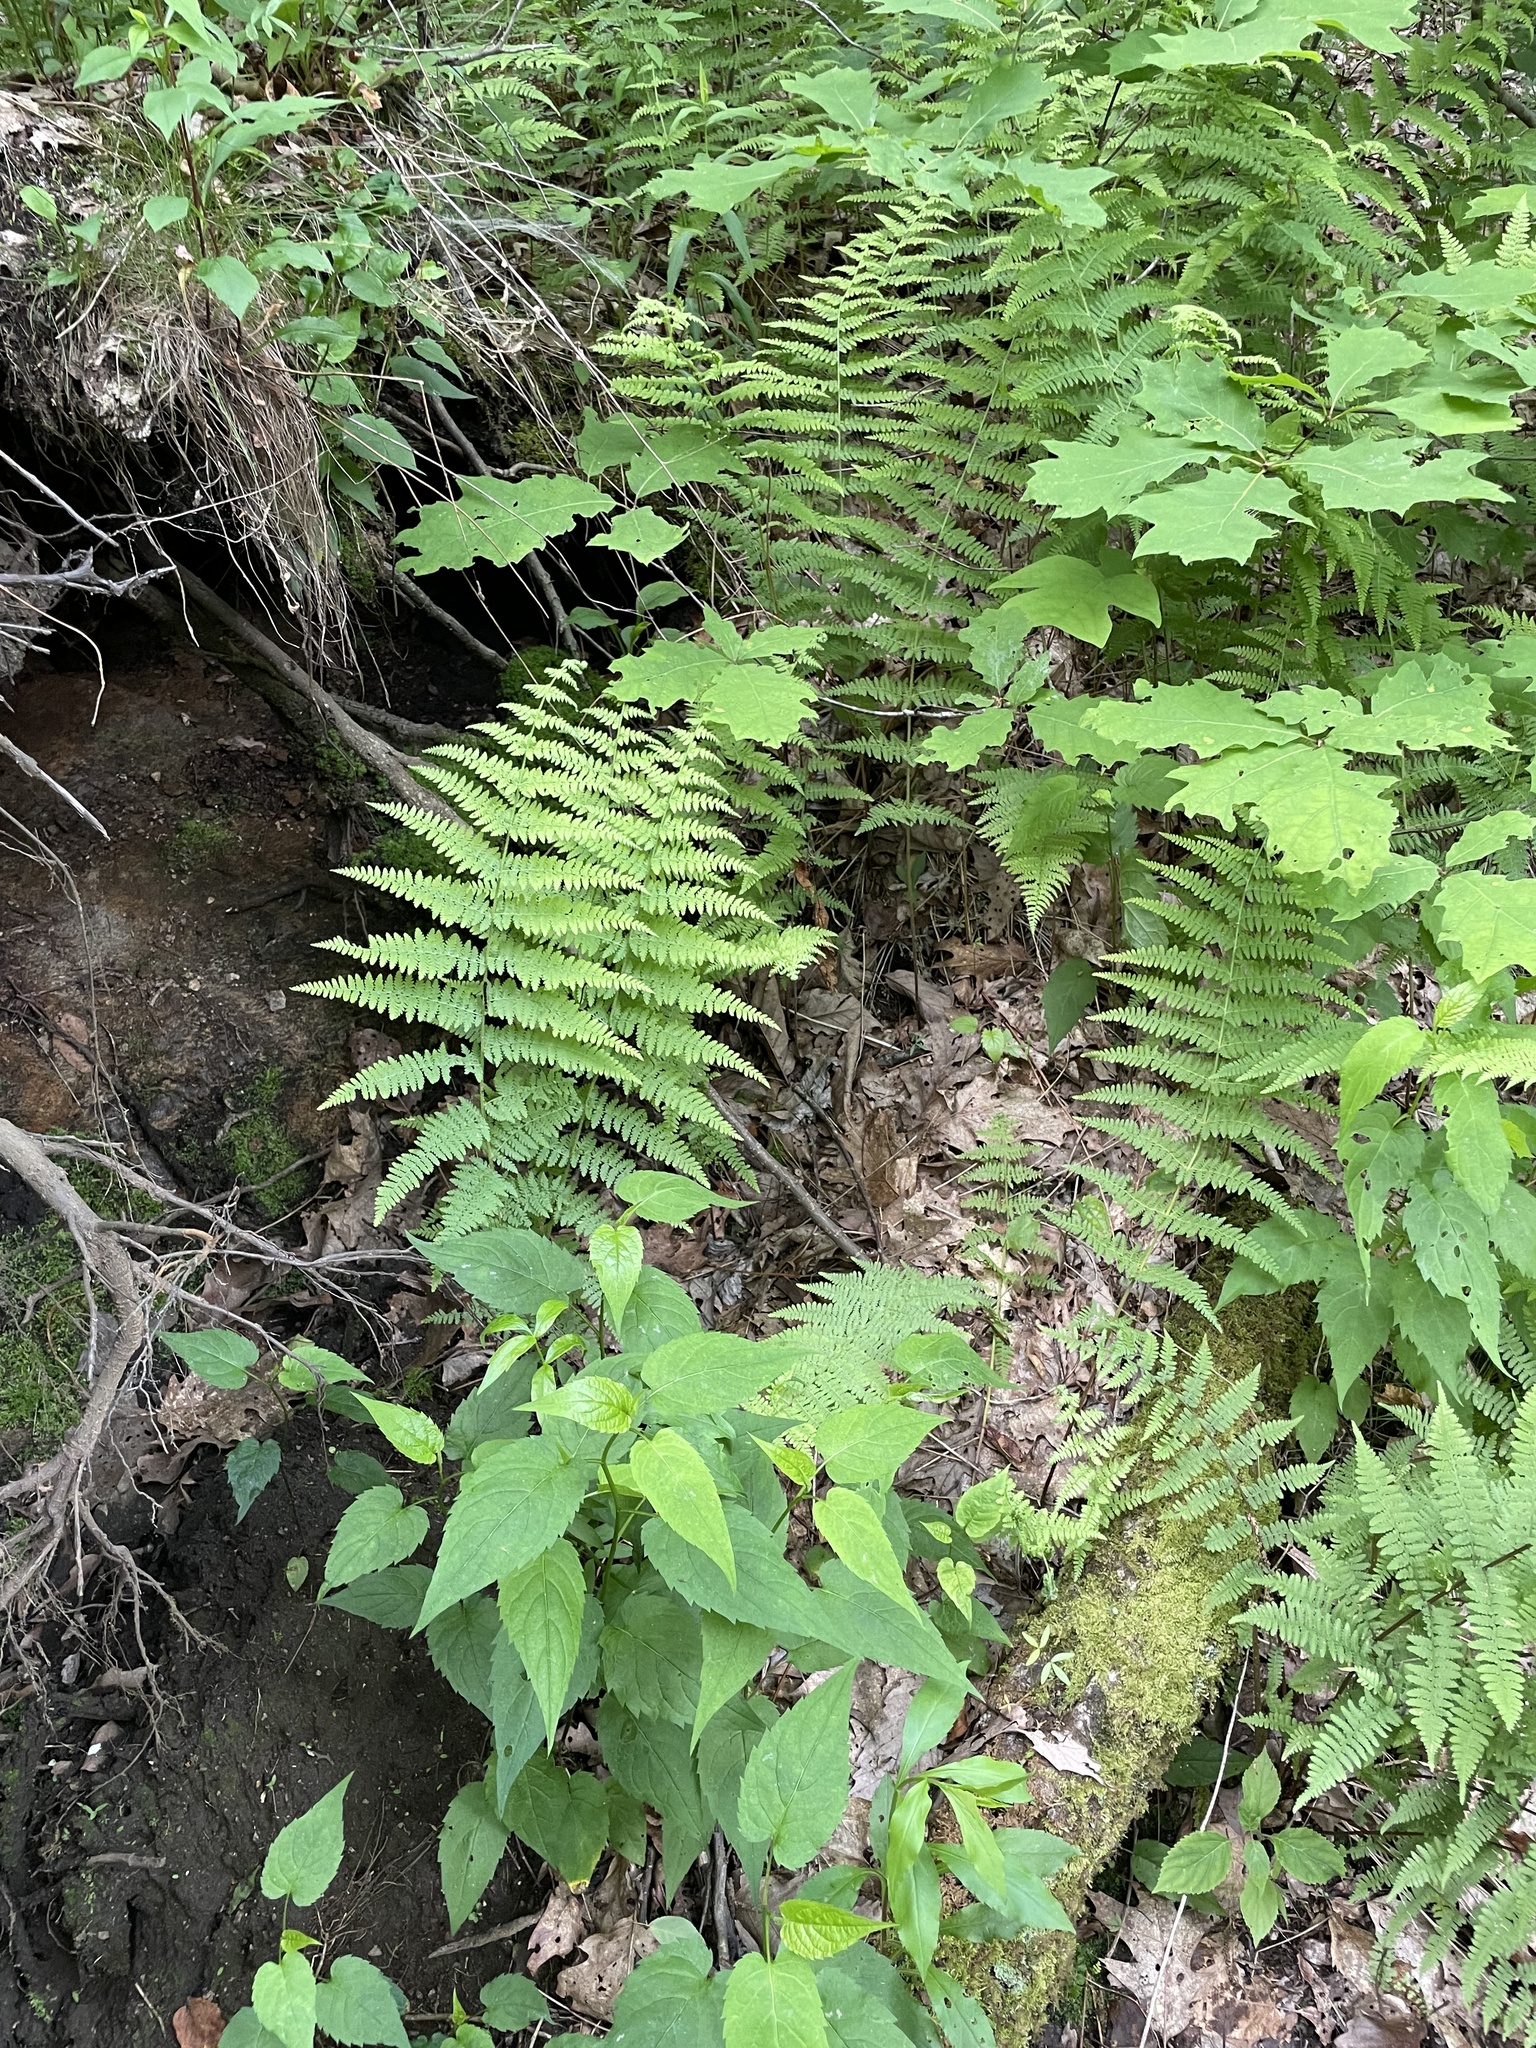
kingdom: Plantae
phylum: Tracheophyta
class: Polypodiopsida
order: Polypodiales
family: Dennstaedtiaceae
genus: Sitobolium
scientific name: Sitobolium punctilobum
